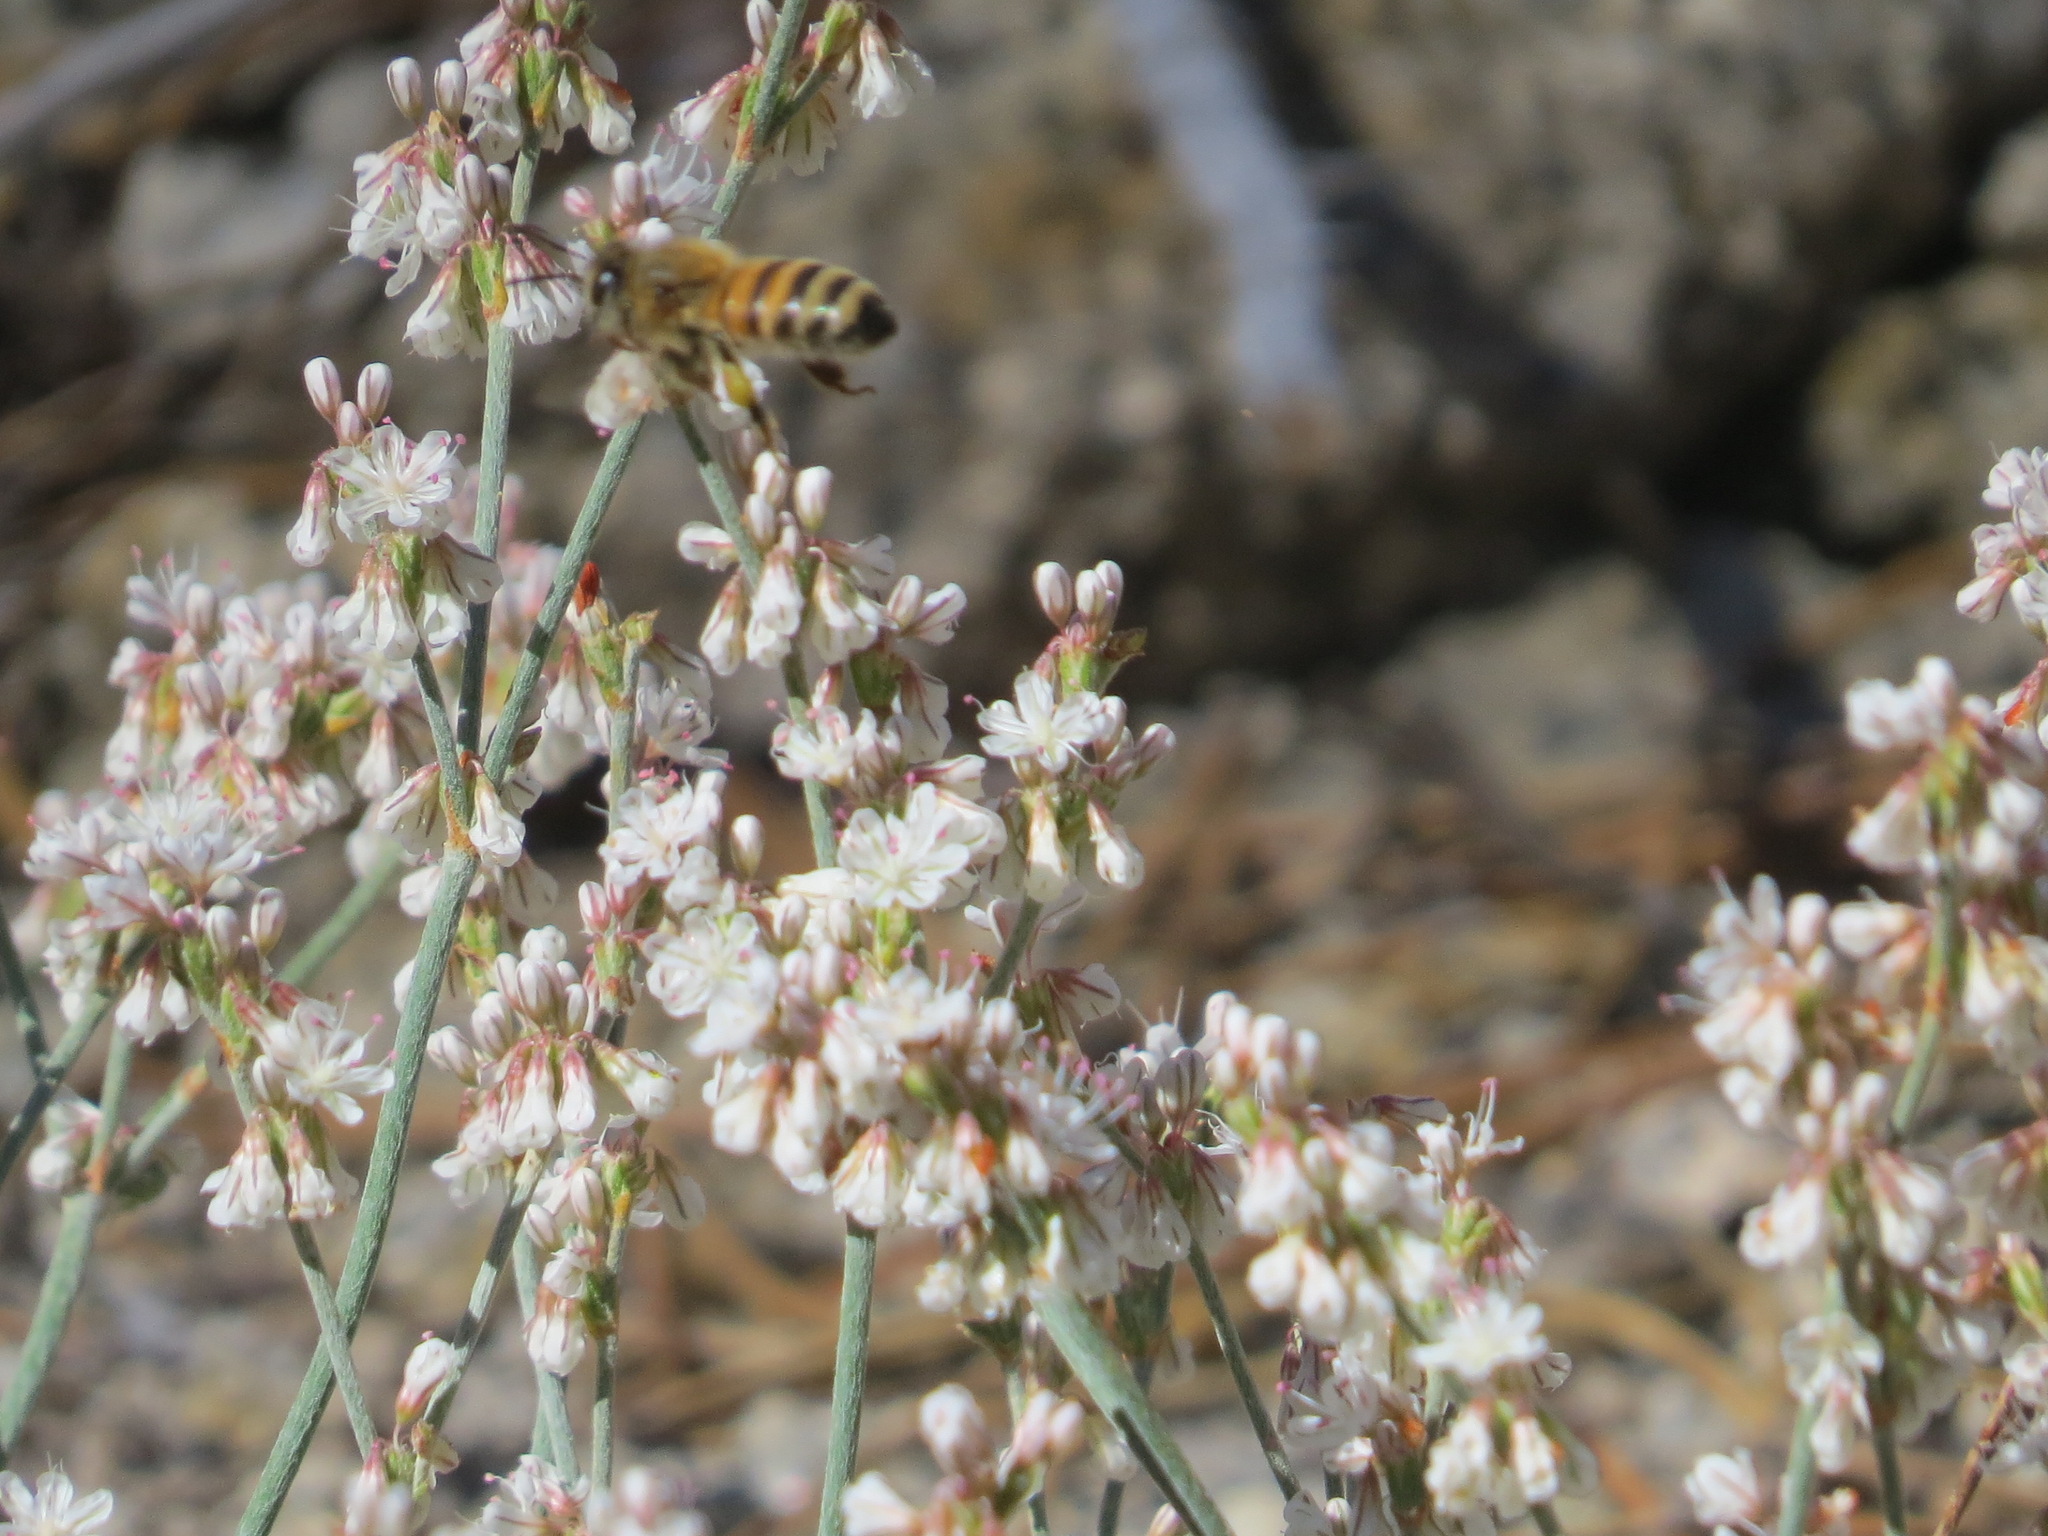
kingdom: Animalia
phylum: Arthropoda
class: Insecta
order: Hymenoptera
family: Apidae
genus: Apis
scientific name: Apis mellifera
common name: Honey bee
